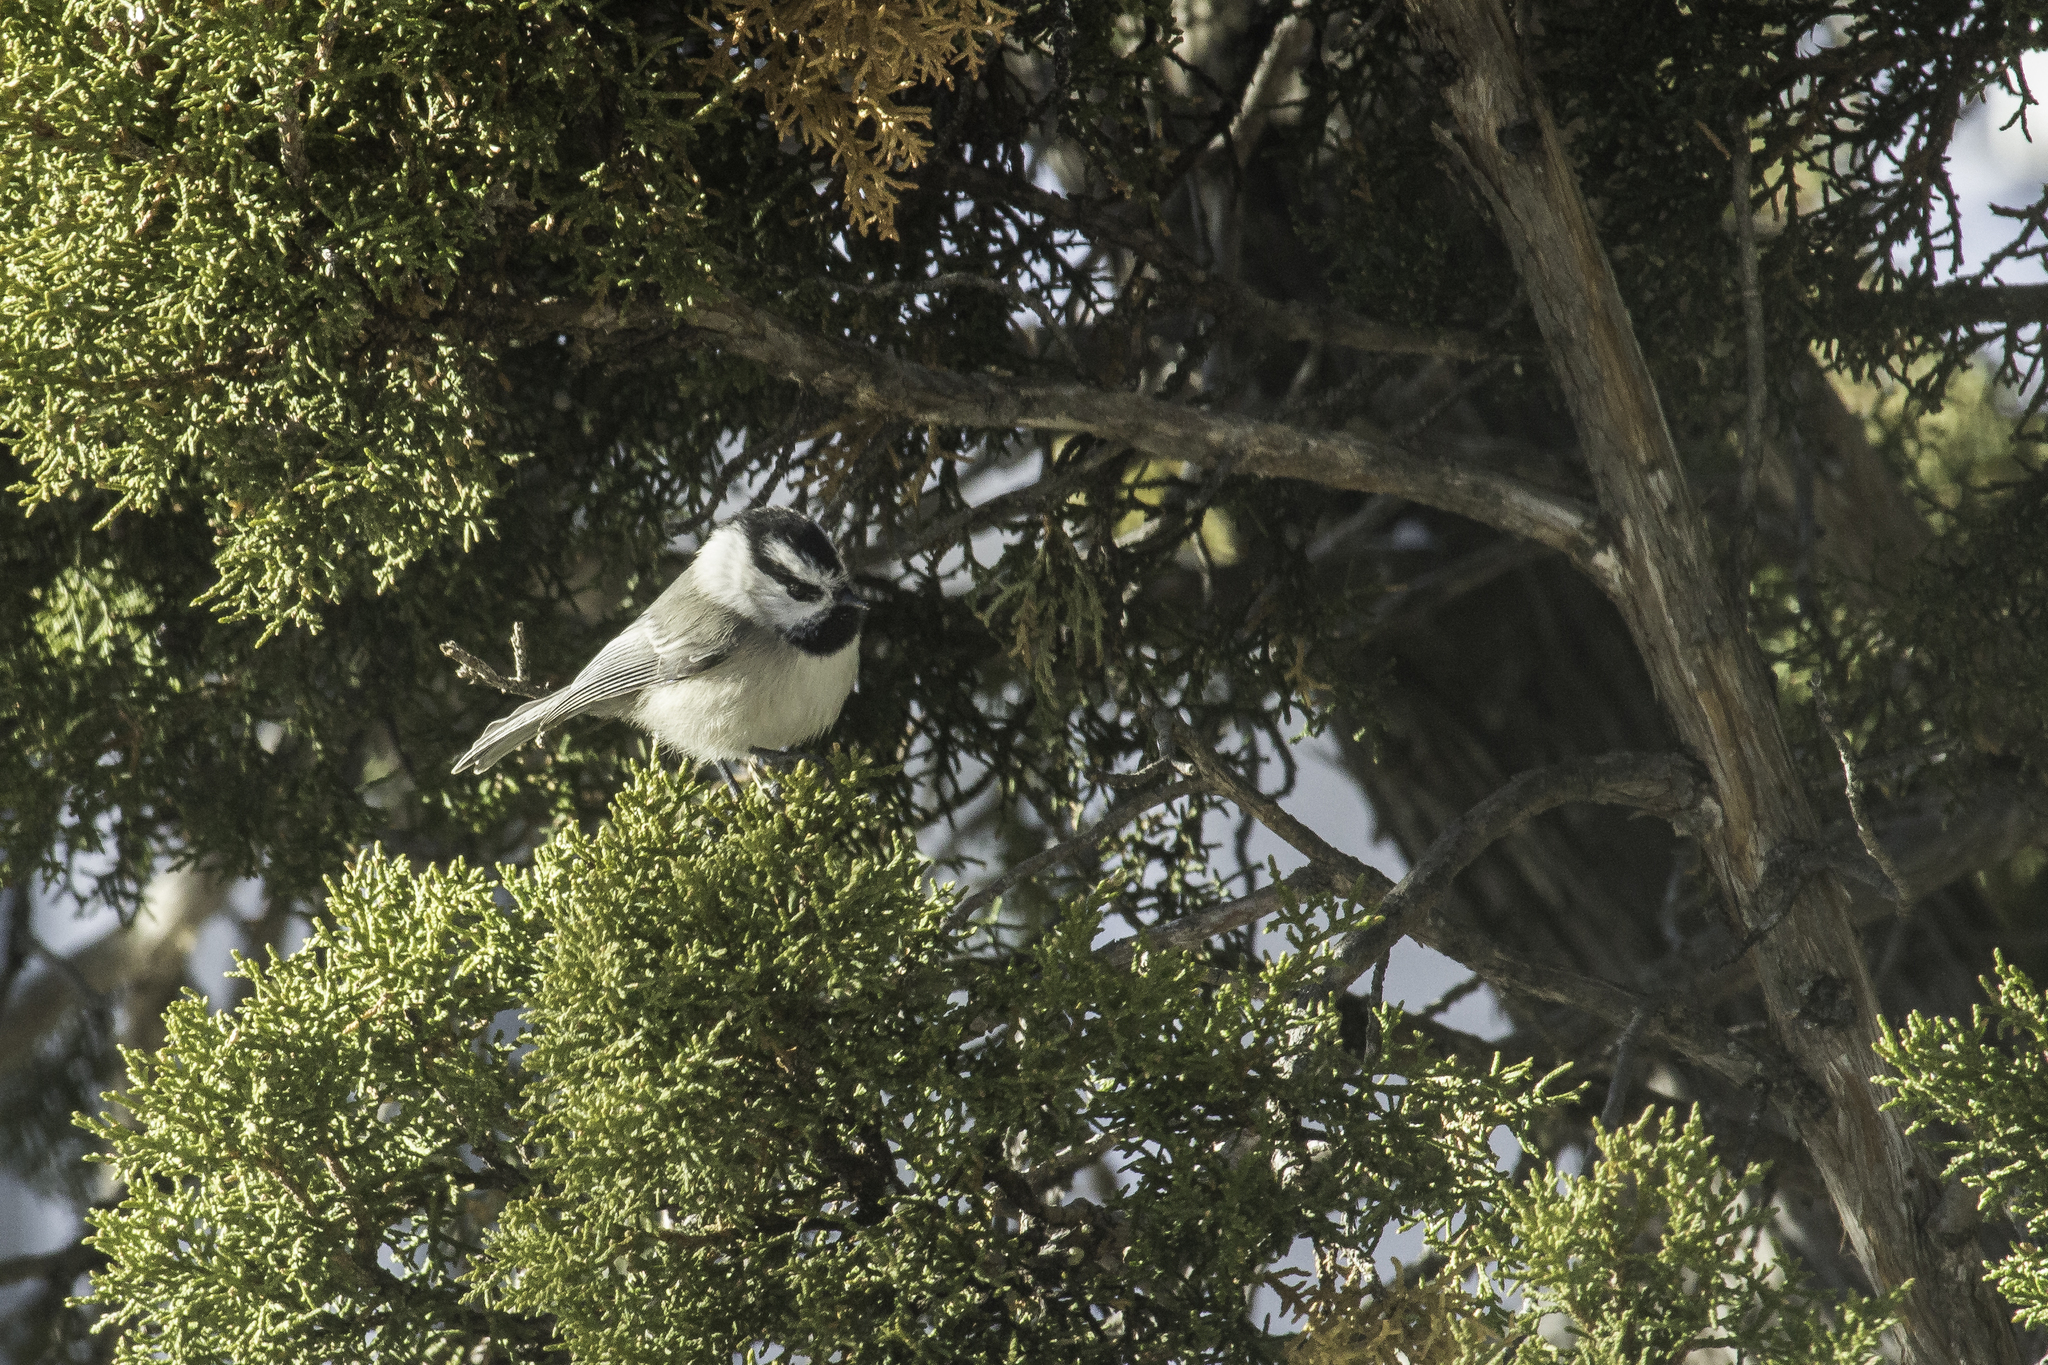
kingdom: Animalia
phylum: Chordata
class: Aves
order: Passeriformes
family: Paridae
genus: Poecile
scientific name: Poecile gambeli
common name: Mountain chickadee
